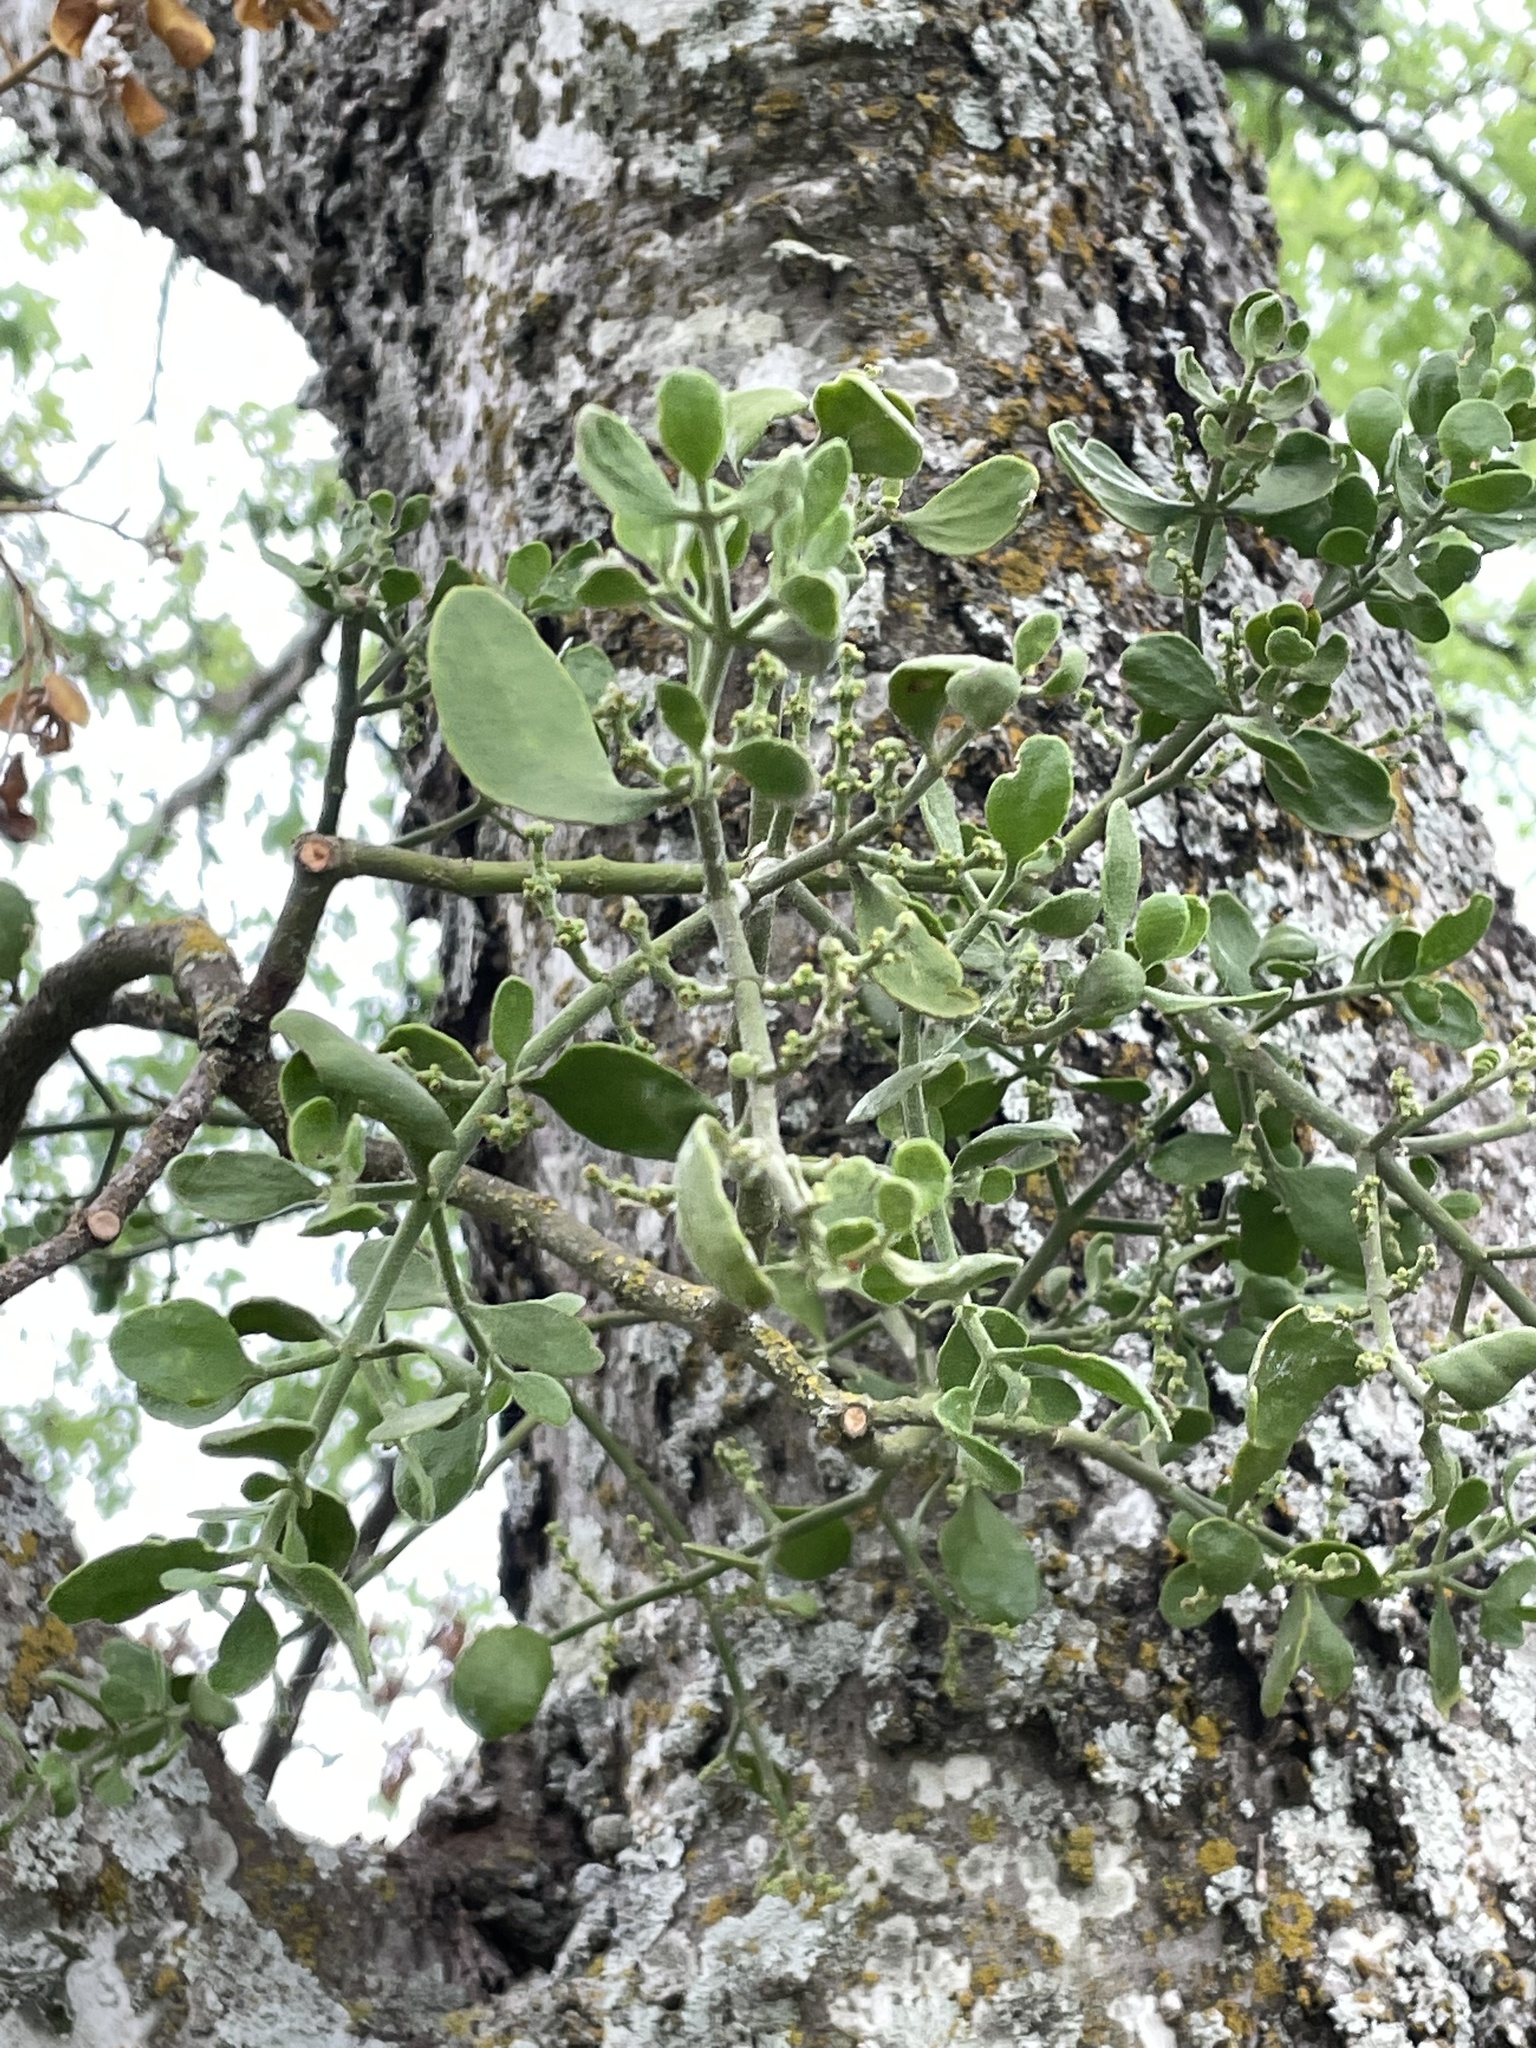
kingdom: Plantae
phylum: Tracheophyta
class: Magnoliopsida
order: Santalales
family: Viscaceae
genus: Phoradendron
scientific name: Phoradendron leucarpum
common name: Pacific mistletoe
